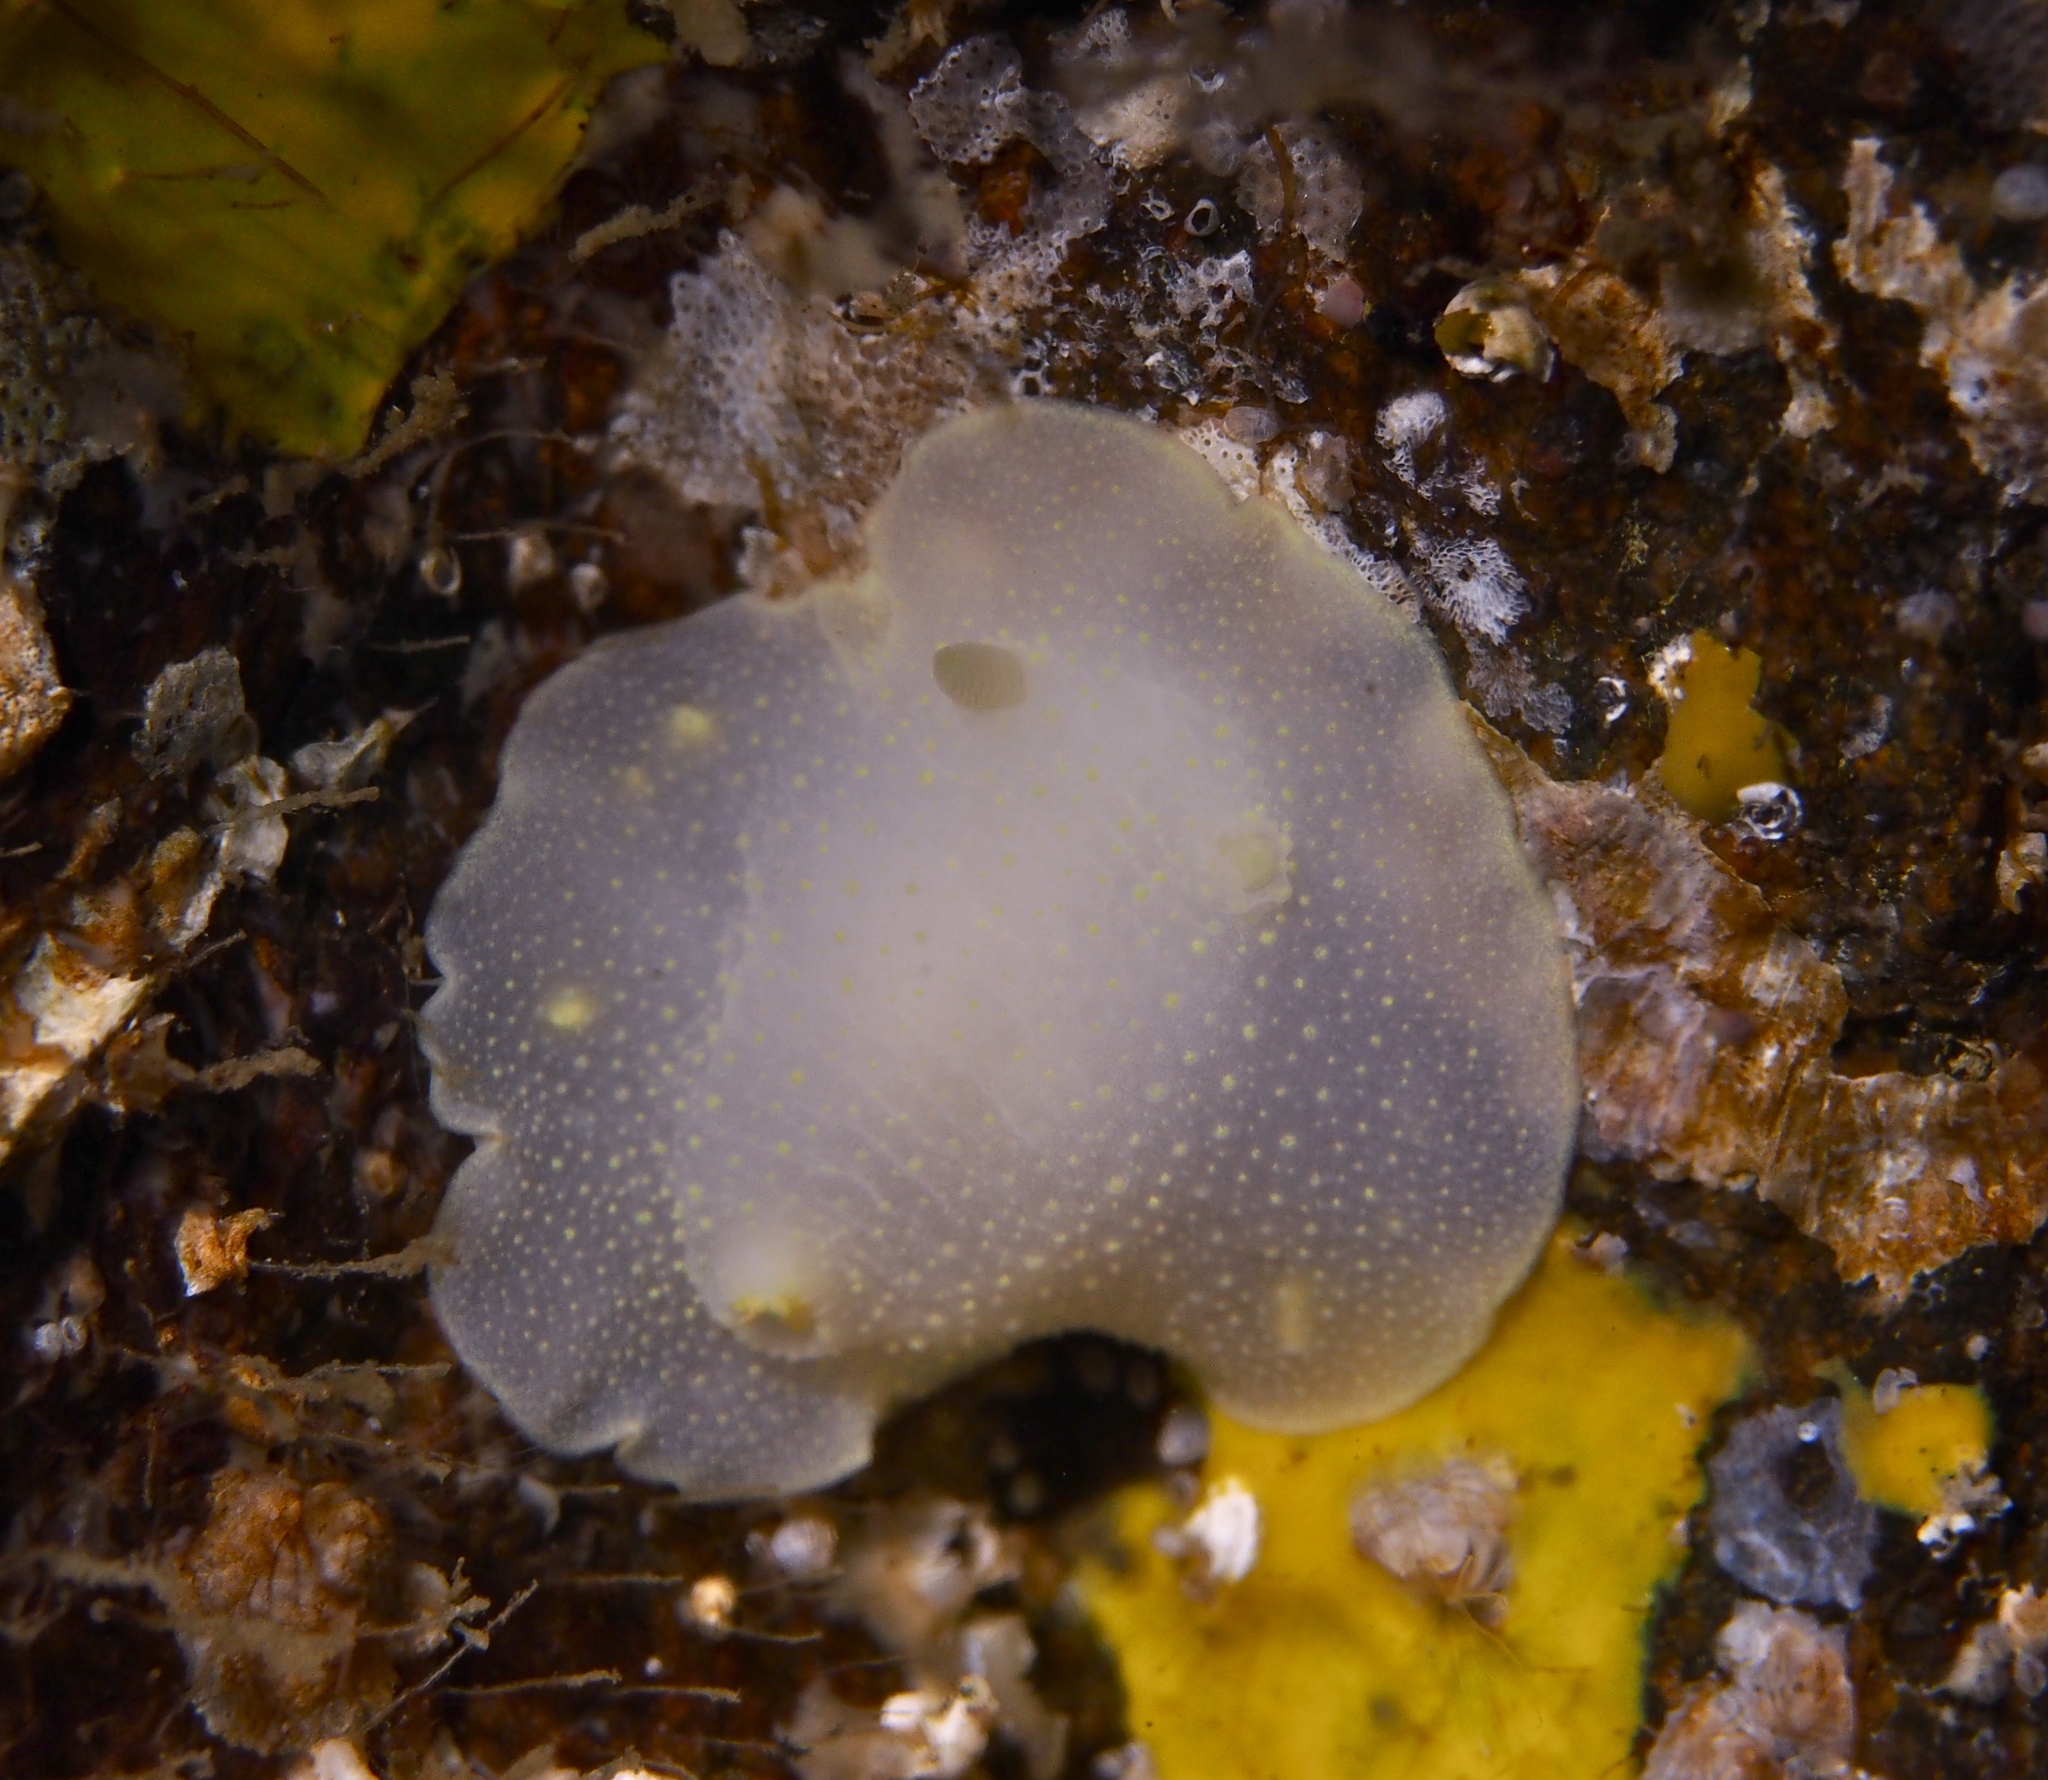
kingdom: Animalia
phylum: Mollusca
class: Gastropoda
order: Nudibranchia
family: Cadlinidae
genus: Cadlina
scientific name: Cadlina laevis
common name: White atlantic cadlina
